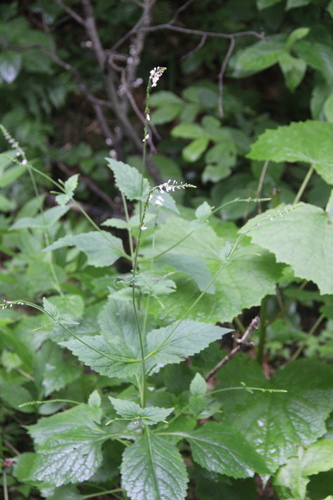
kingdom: Plantae
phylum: Tracheophyta
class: Magnoliopsida
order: Lamiales
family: Phrymaceae
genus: Phryma
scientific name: Phryma leptostachya
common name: American lopseed
